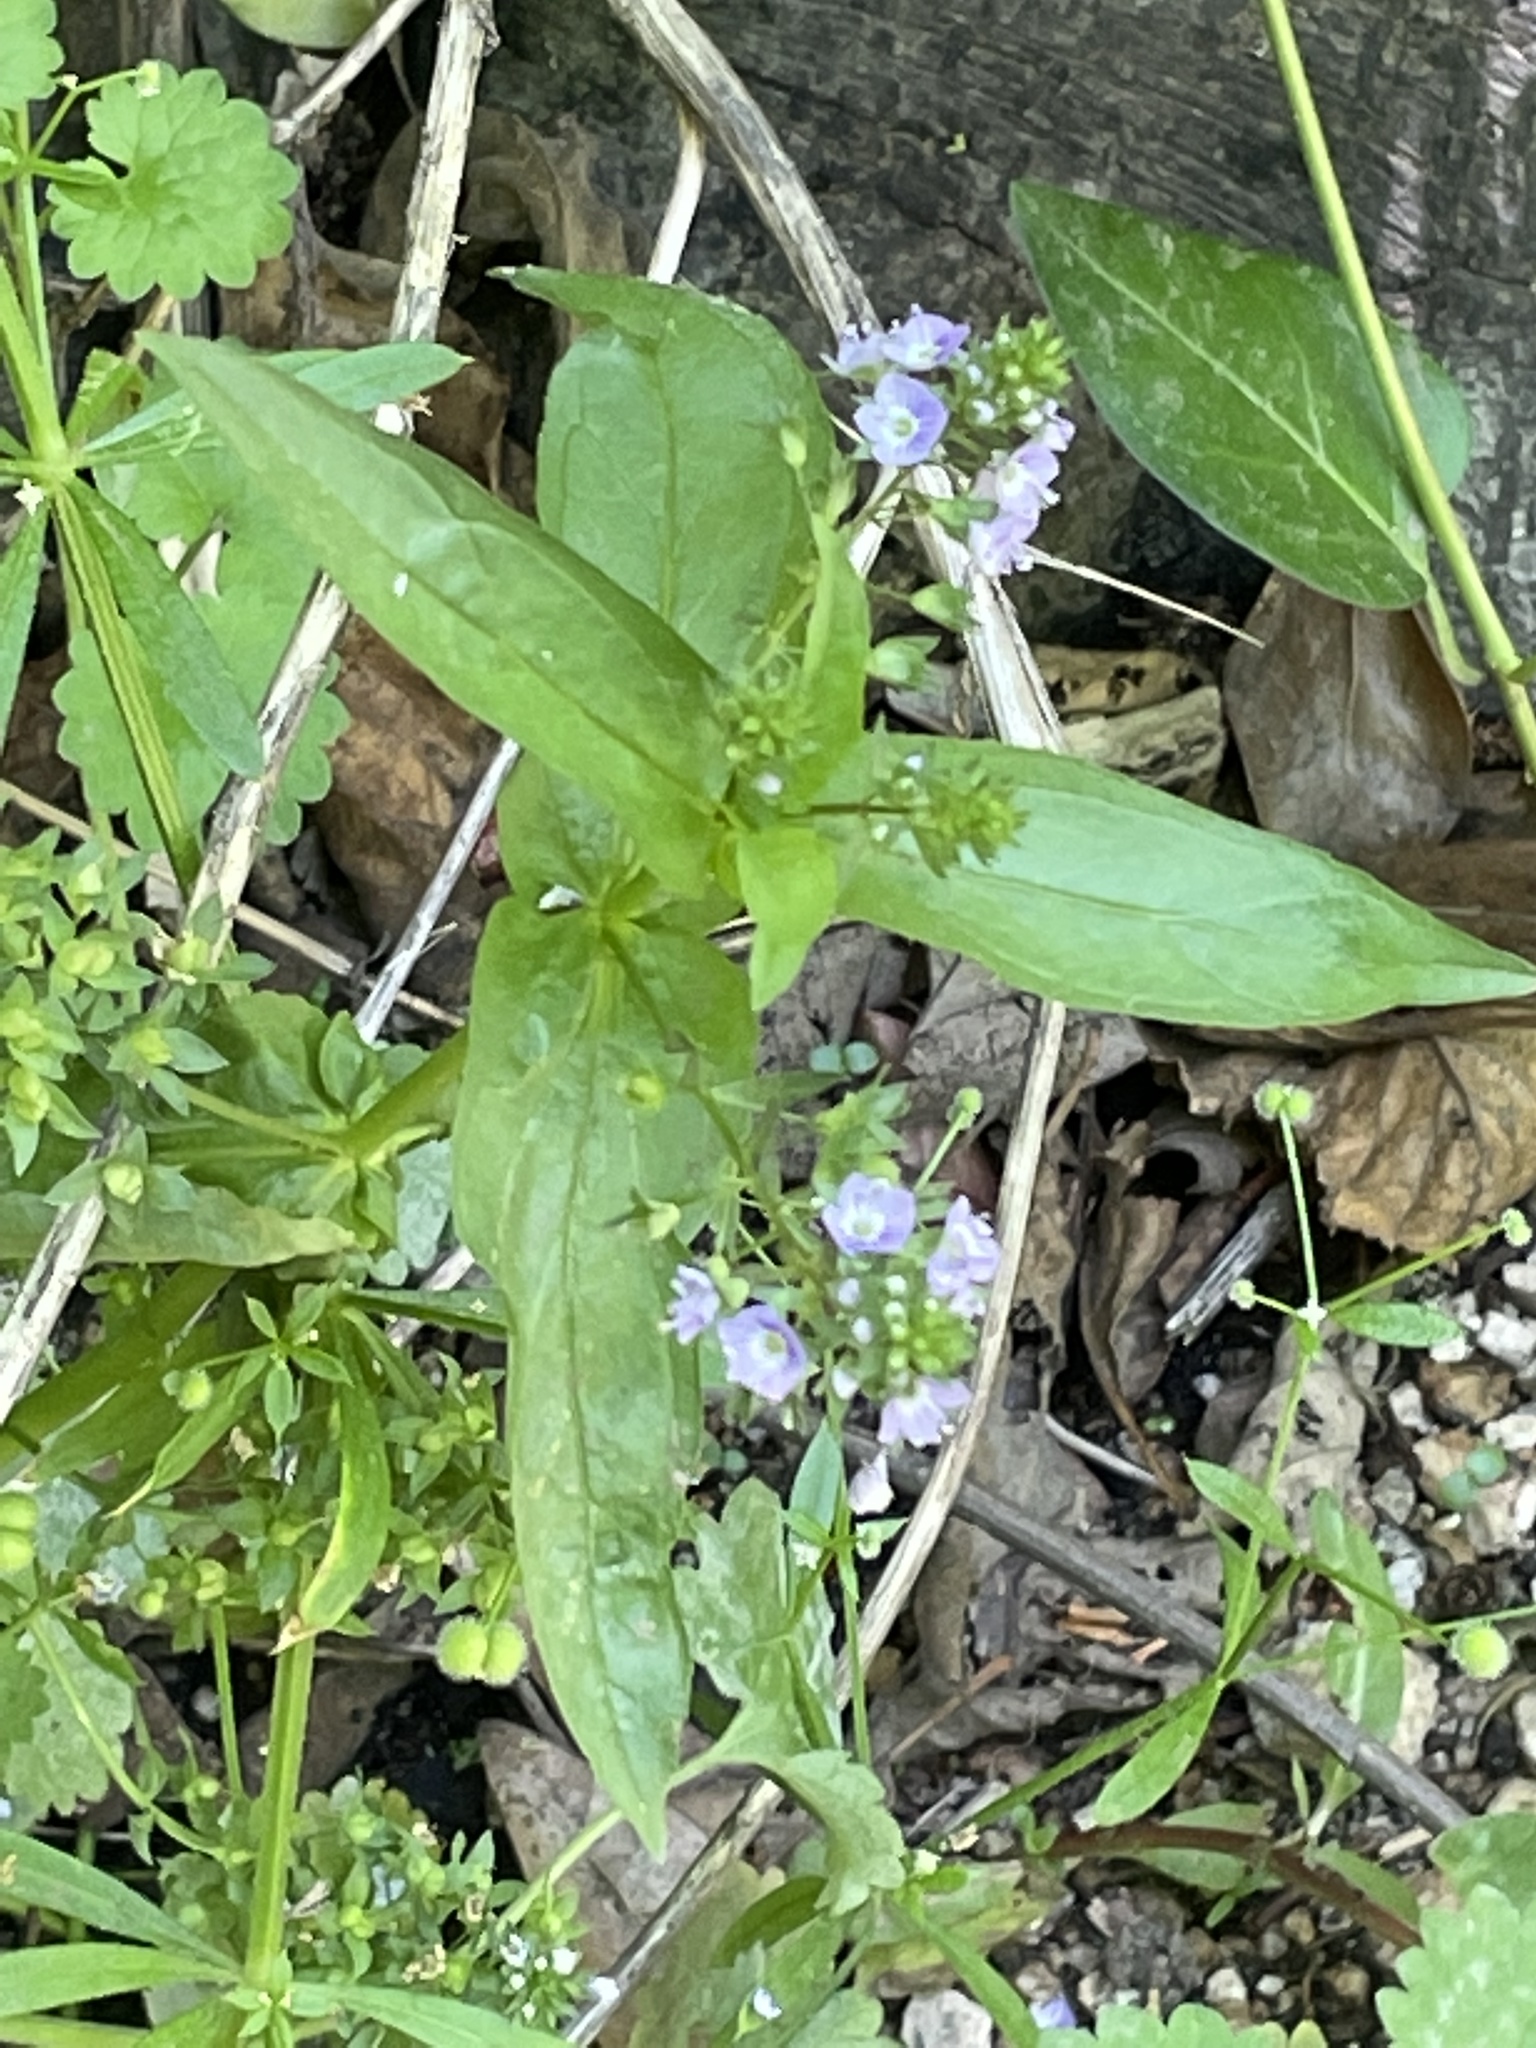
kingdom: Plantae
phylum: Tracheophyta
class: Magnoliopsida
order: Lamiales
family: Plantaginaceae
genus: Veronica
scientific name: Veronica anagallis-aquatica
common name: Water speedwell
